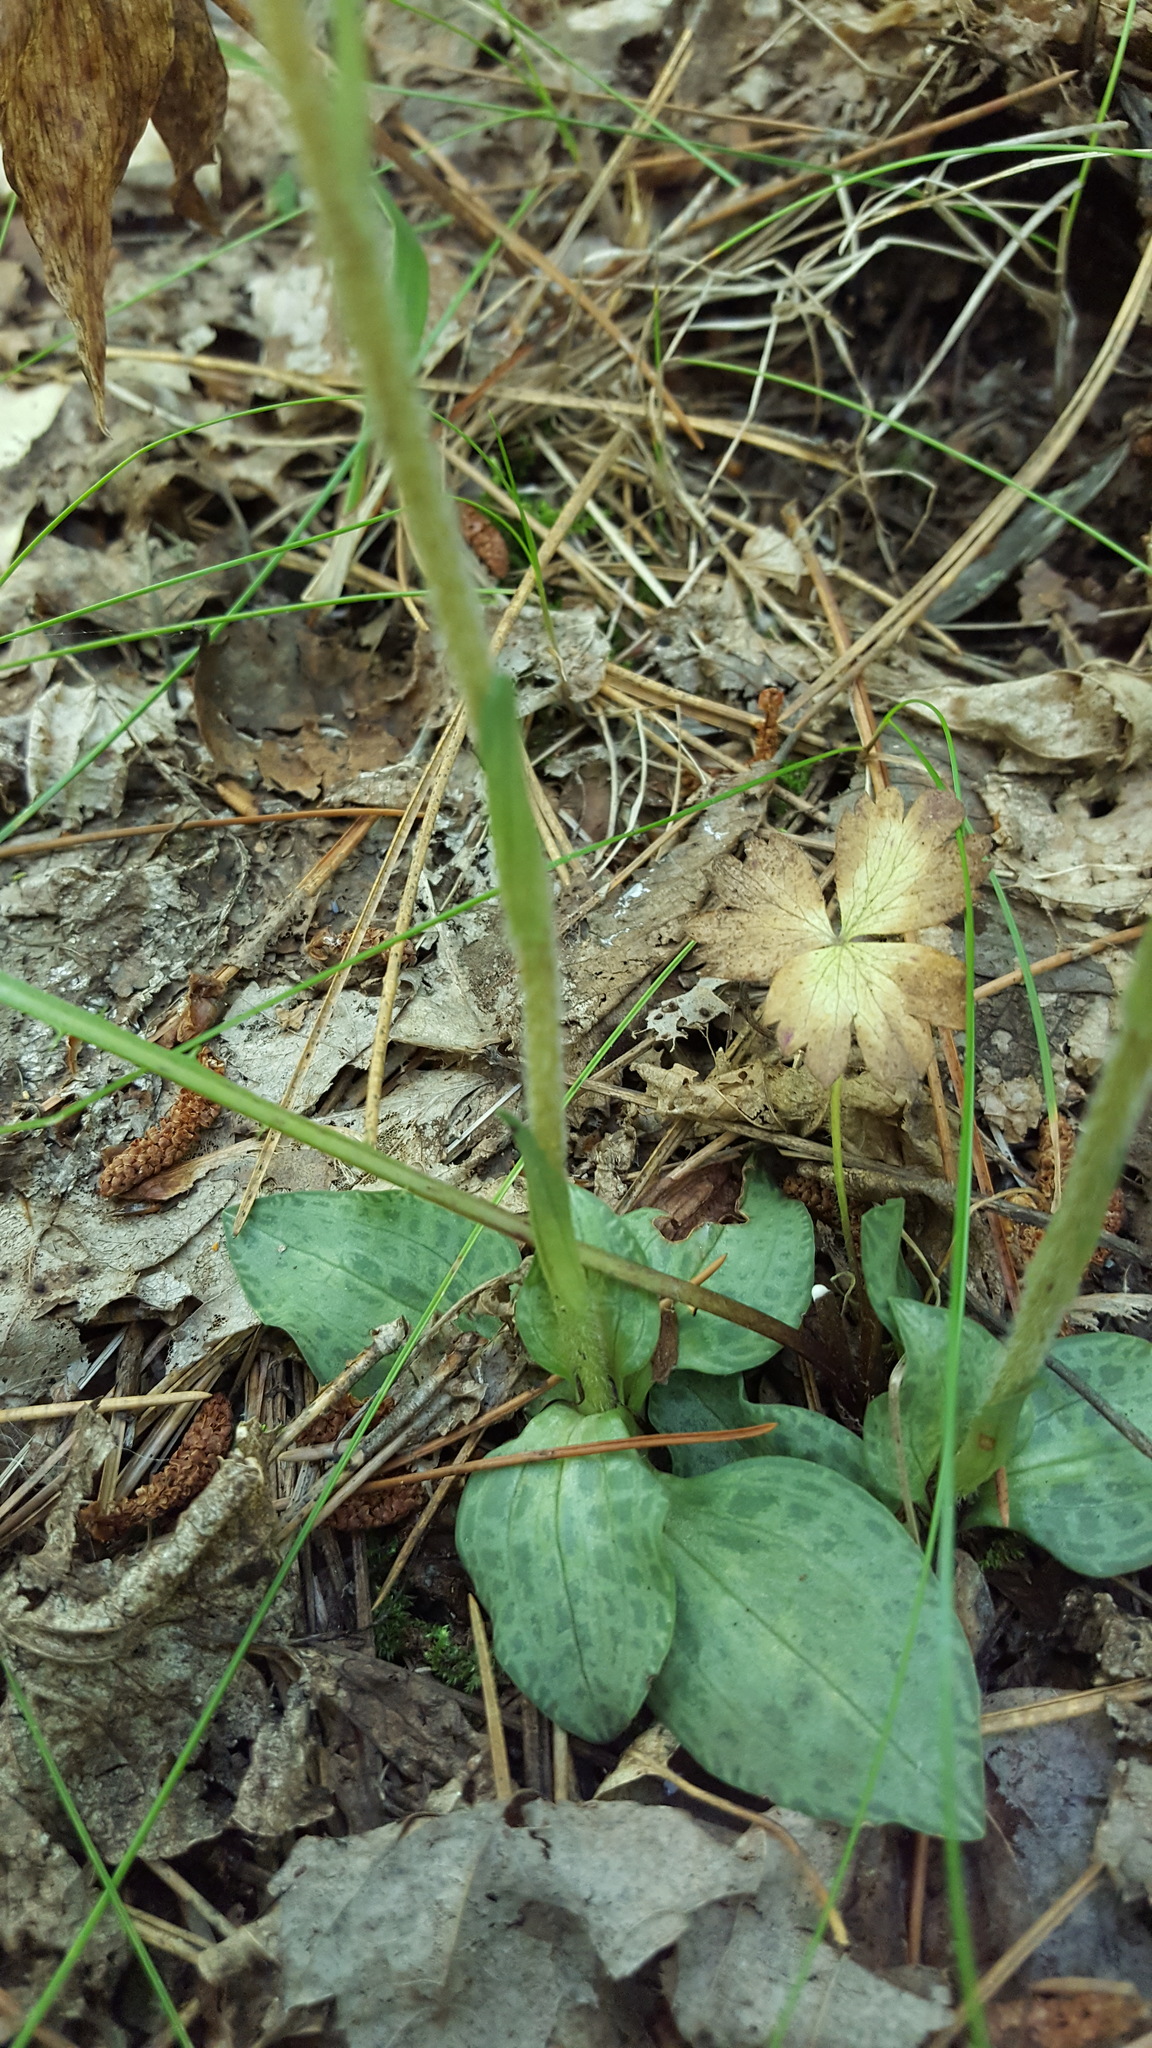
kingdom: Plantae
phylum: Tracheophyta
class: Liliopsida
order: Asparagales
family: Orchidaceae
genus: Goodyera
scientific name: Goodyera tesselata
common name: Checkered rattlesnake-plantain
